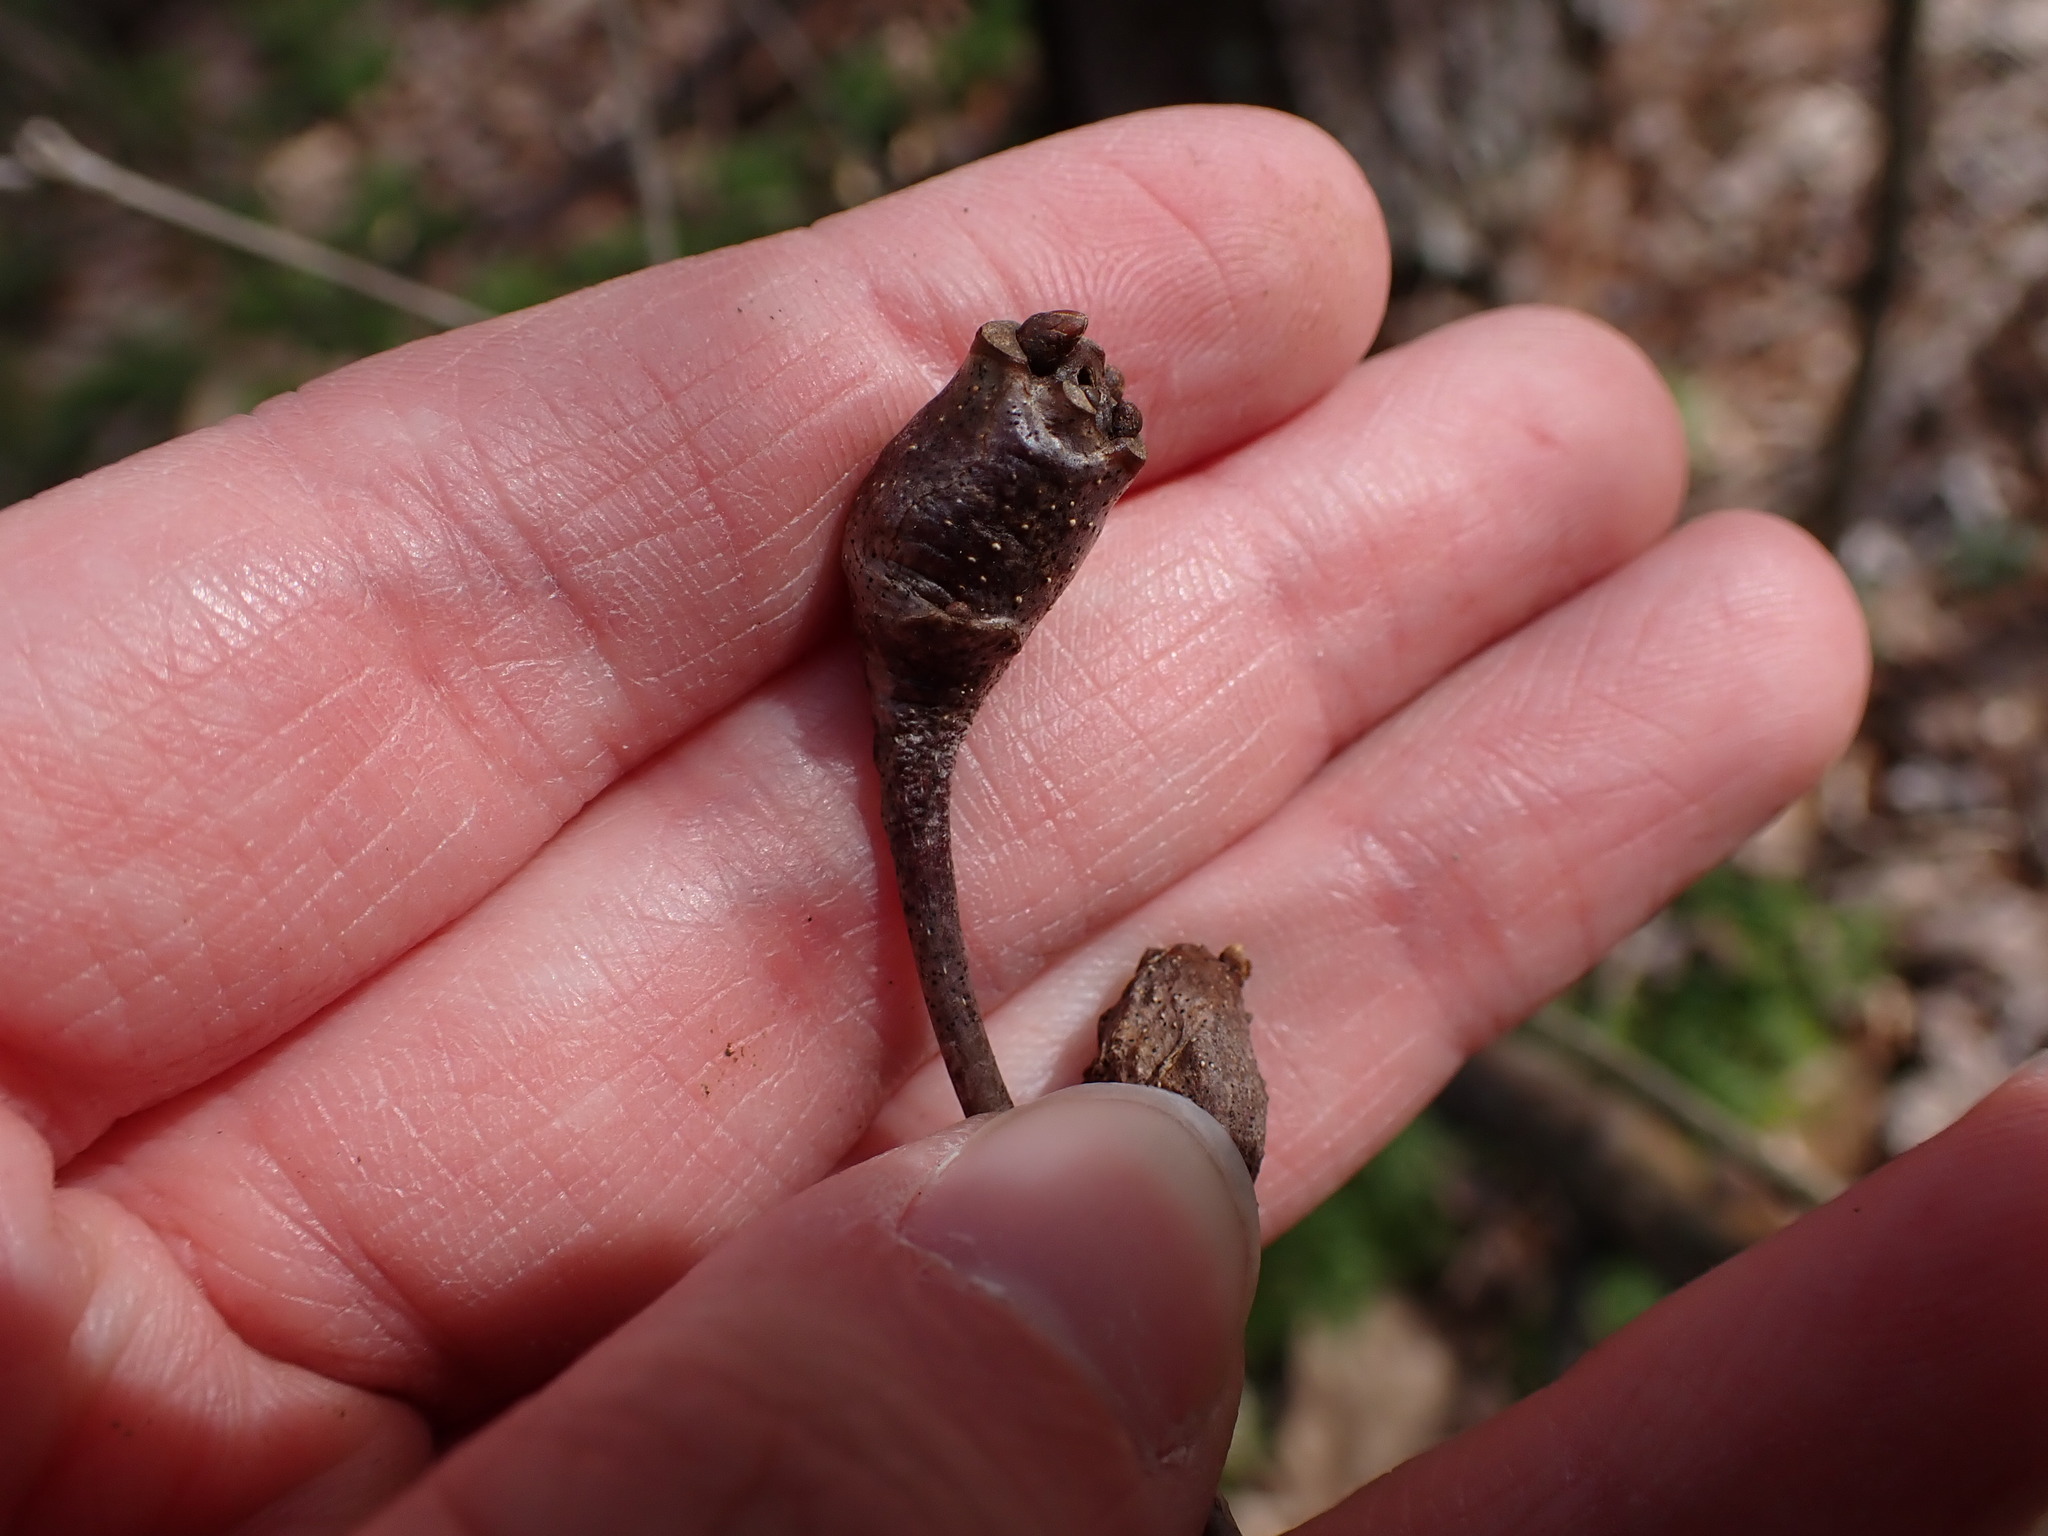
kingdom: Animalia
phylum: Arthropoda
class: Insecta
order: Hymenoptera
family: Cynipidae
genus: Callirhytis
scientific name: Callirhytis clavula
